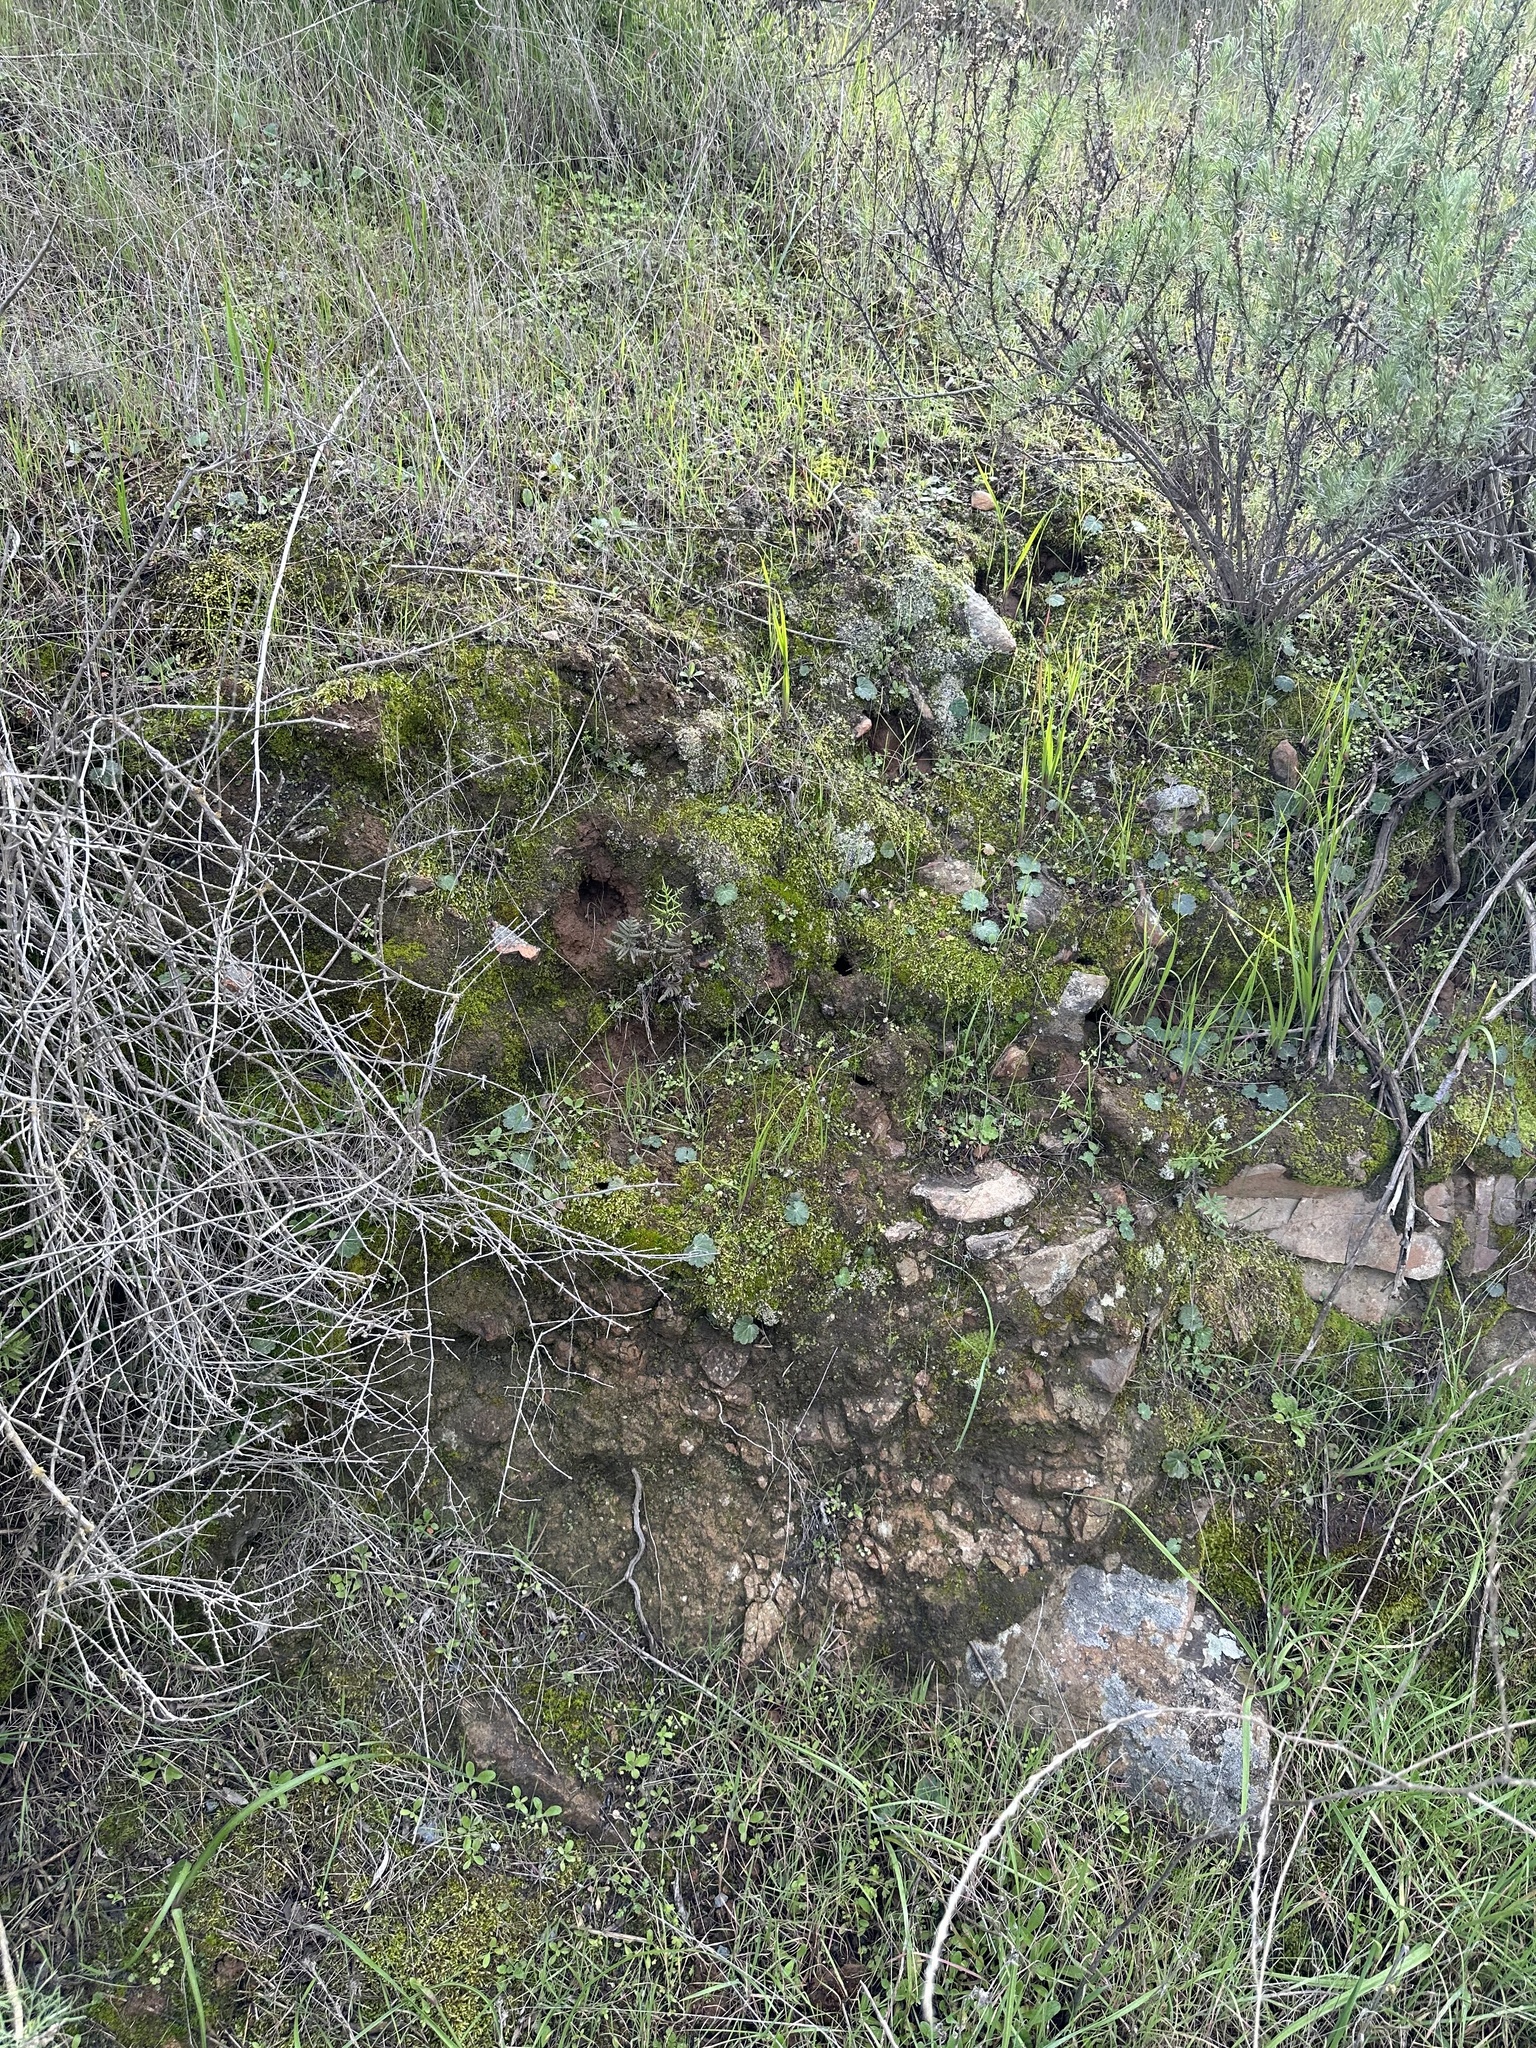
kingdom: Plantae
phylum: Tracheophyta
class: Magnoliopsida
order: Saxifragales
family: Saxifragaceae
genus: Jepsonia
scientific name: Jepsonia parryi
